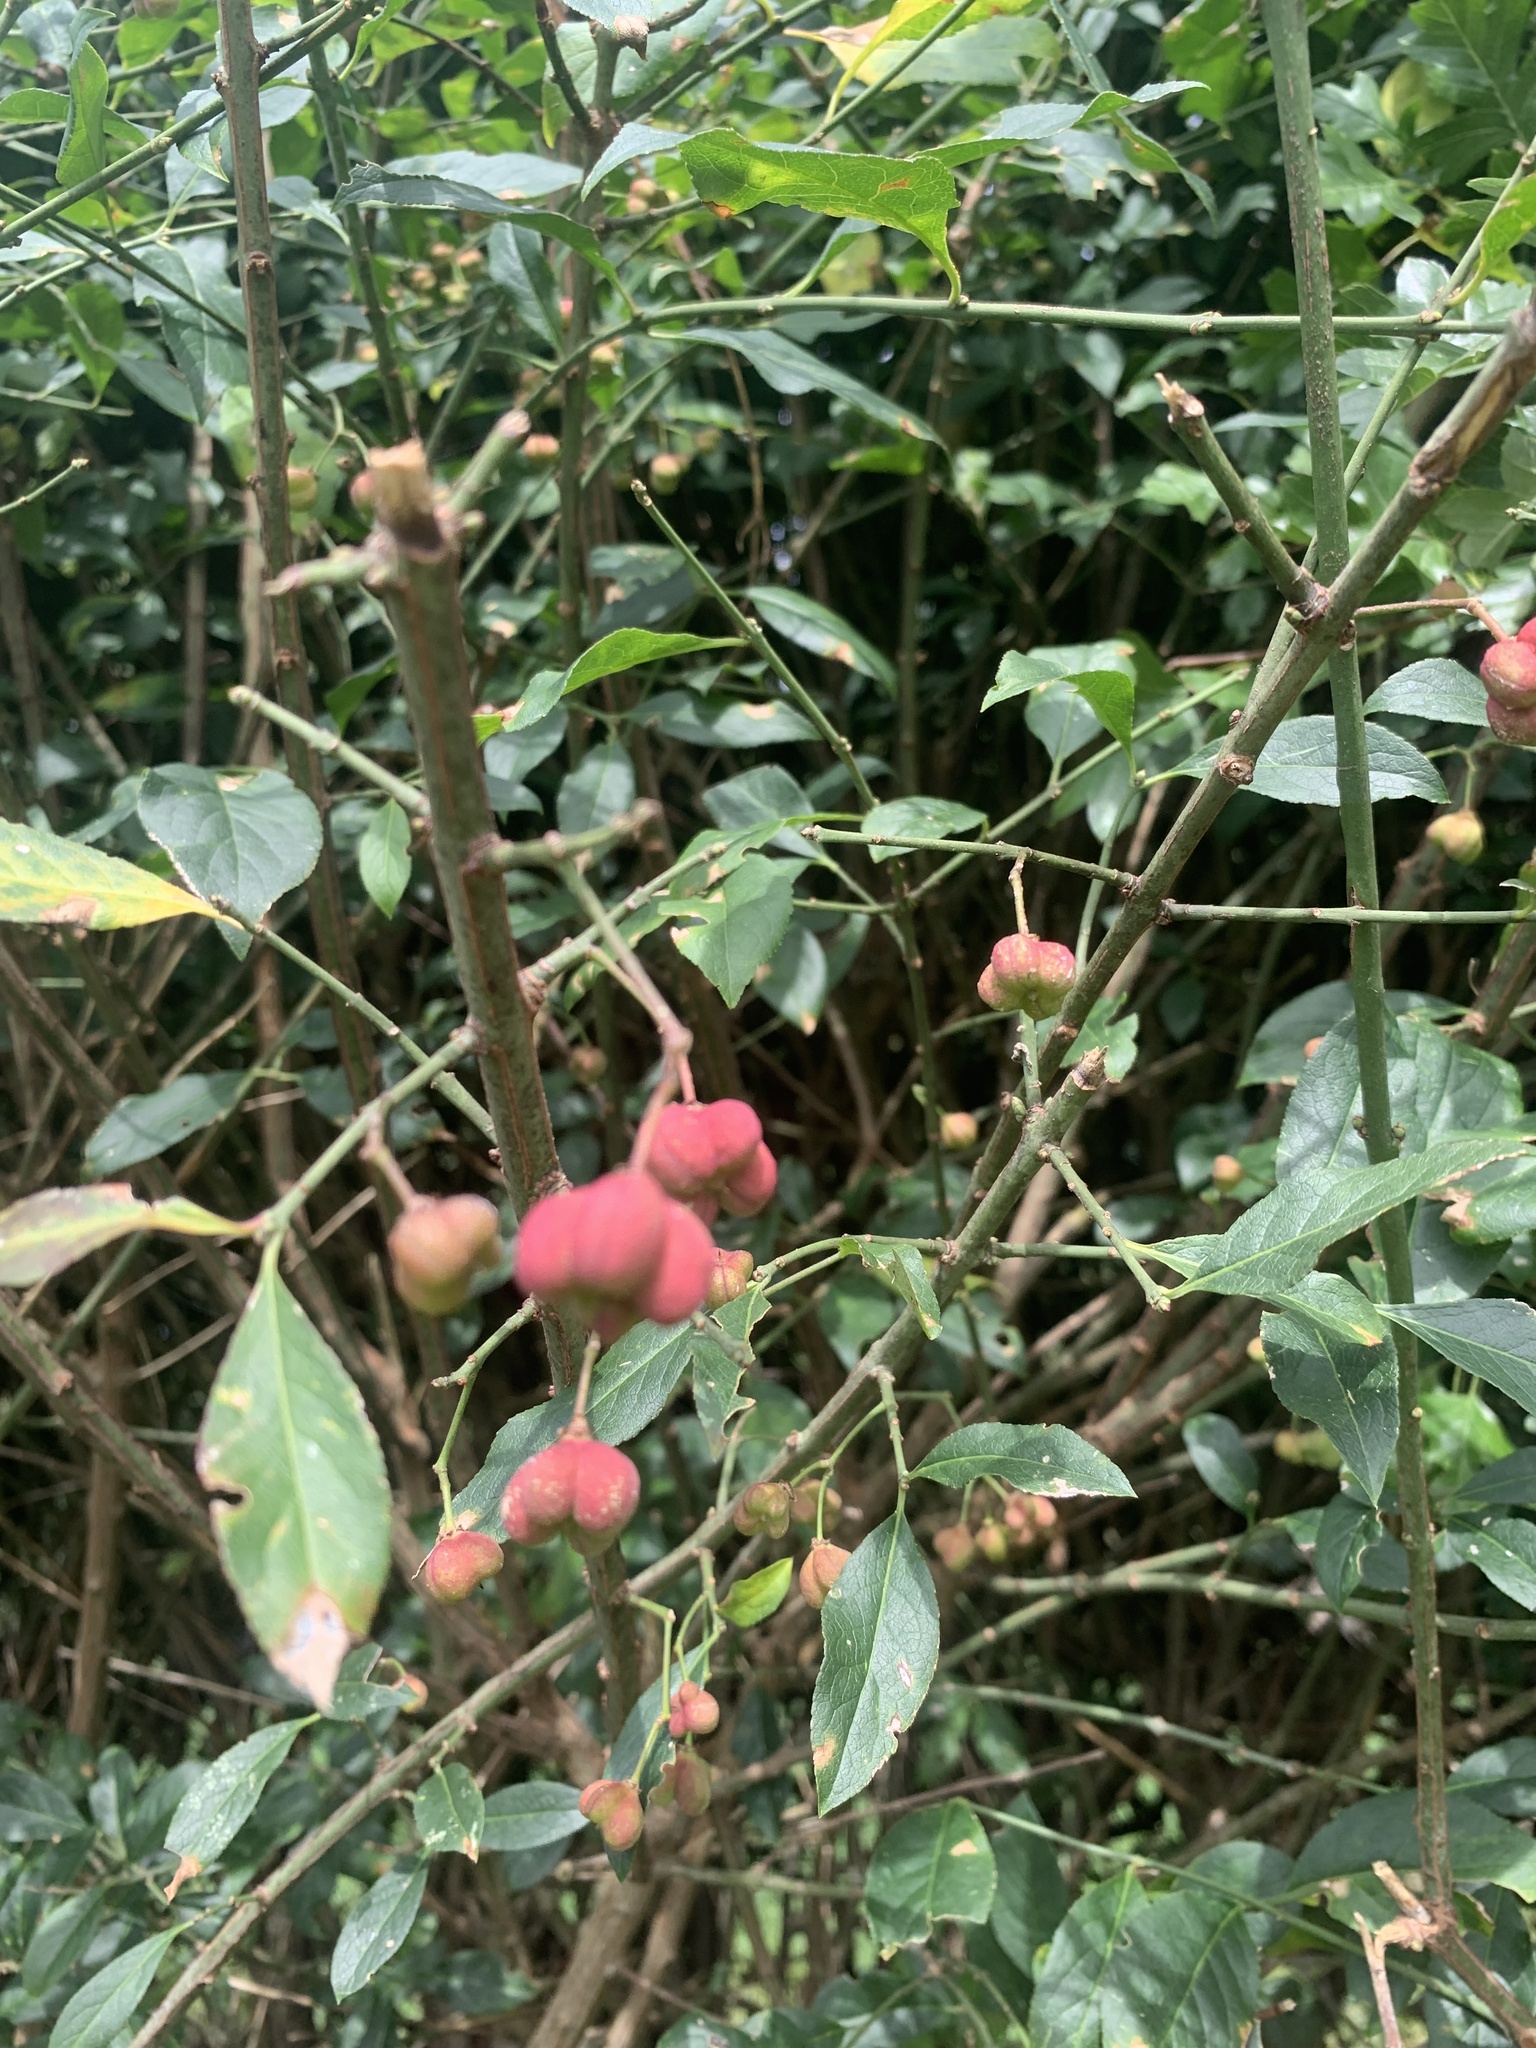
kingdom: Plantae
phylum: Tracheophyta
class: Magnoliopsida
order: Celastrales
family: Celastraceae
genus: Euonymus
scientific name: Euonymus europaeus
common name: Spindle
